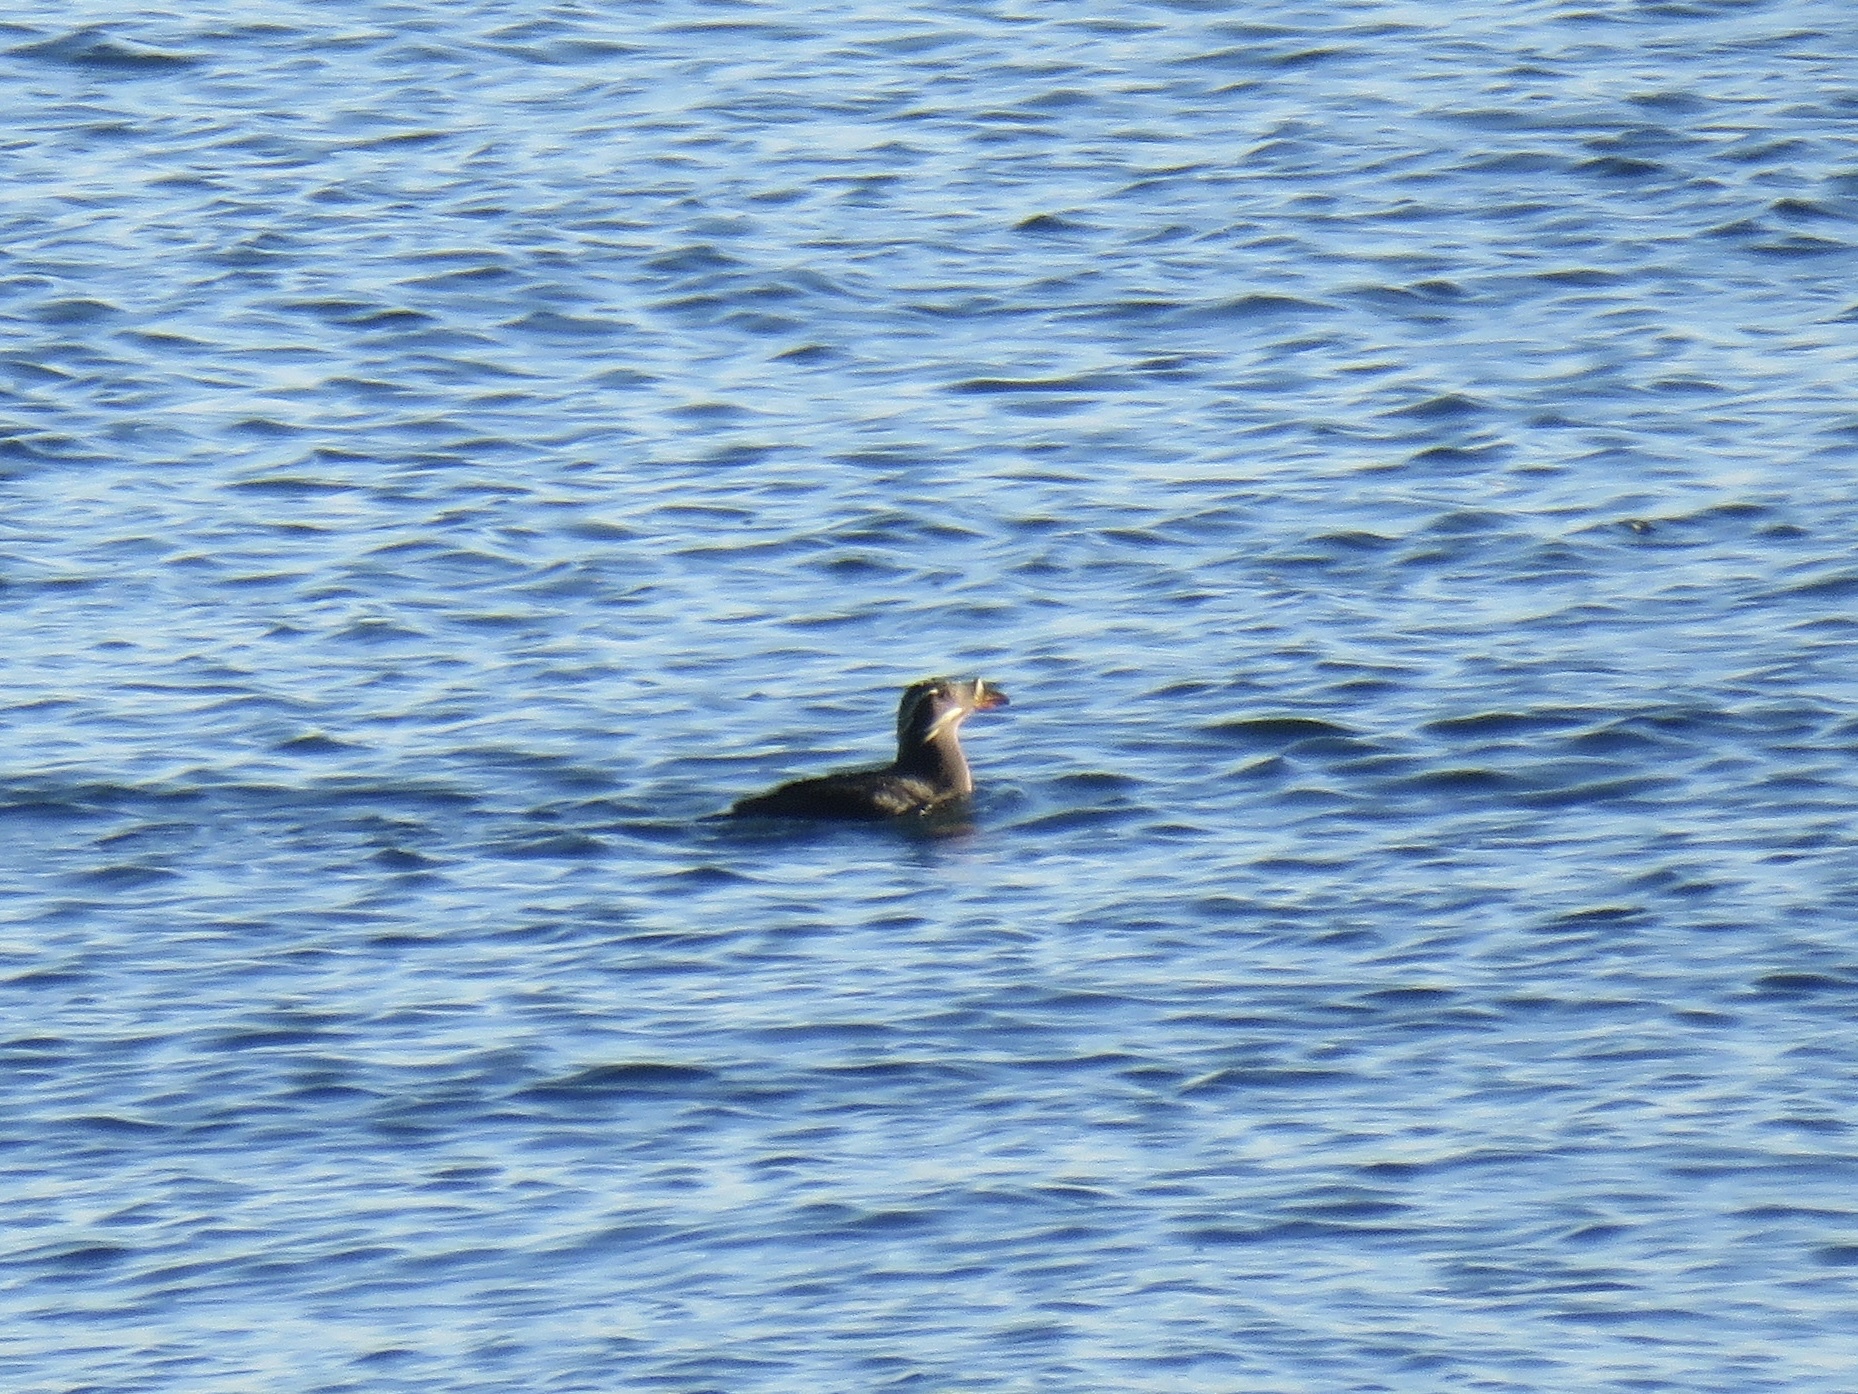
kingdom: Animalia
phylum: Chordata
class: Aves
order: Charadriiformes
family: Alcidae
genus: Cerorhinca
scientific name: Cerorhinca monocerata
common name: Rhinoceros auklet
